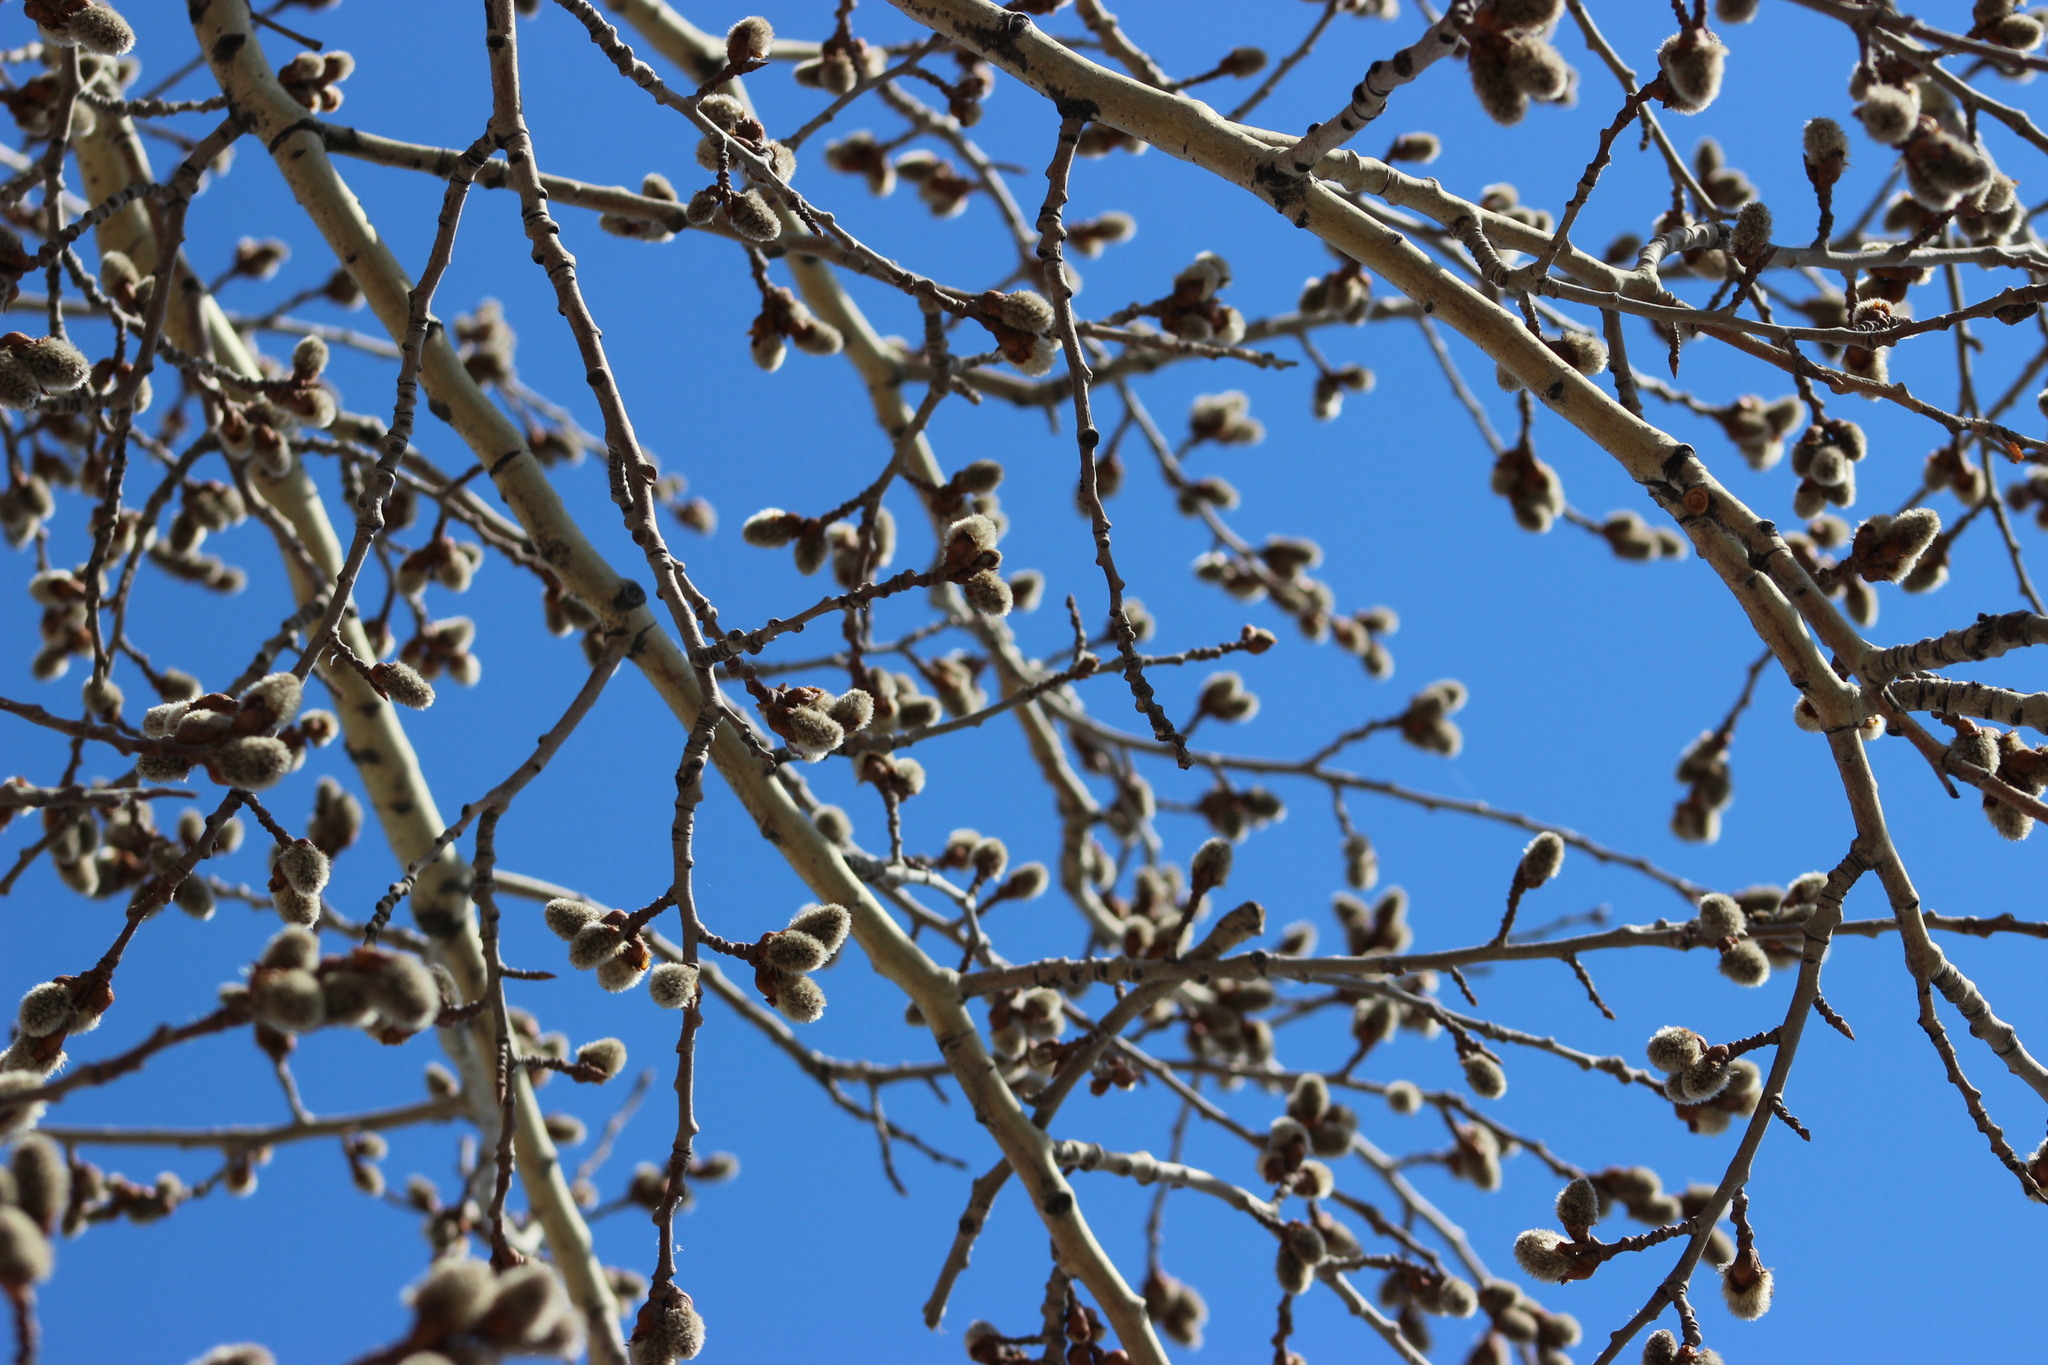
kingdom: Plantae
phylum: Tracheophyta
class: Magnoliopsida
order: Malpighiales
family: Salicaceae
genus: Populus
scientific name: Populus tremula
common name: European aspen
